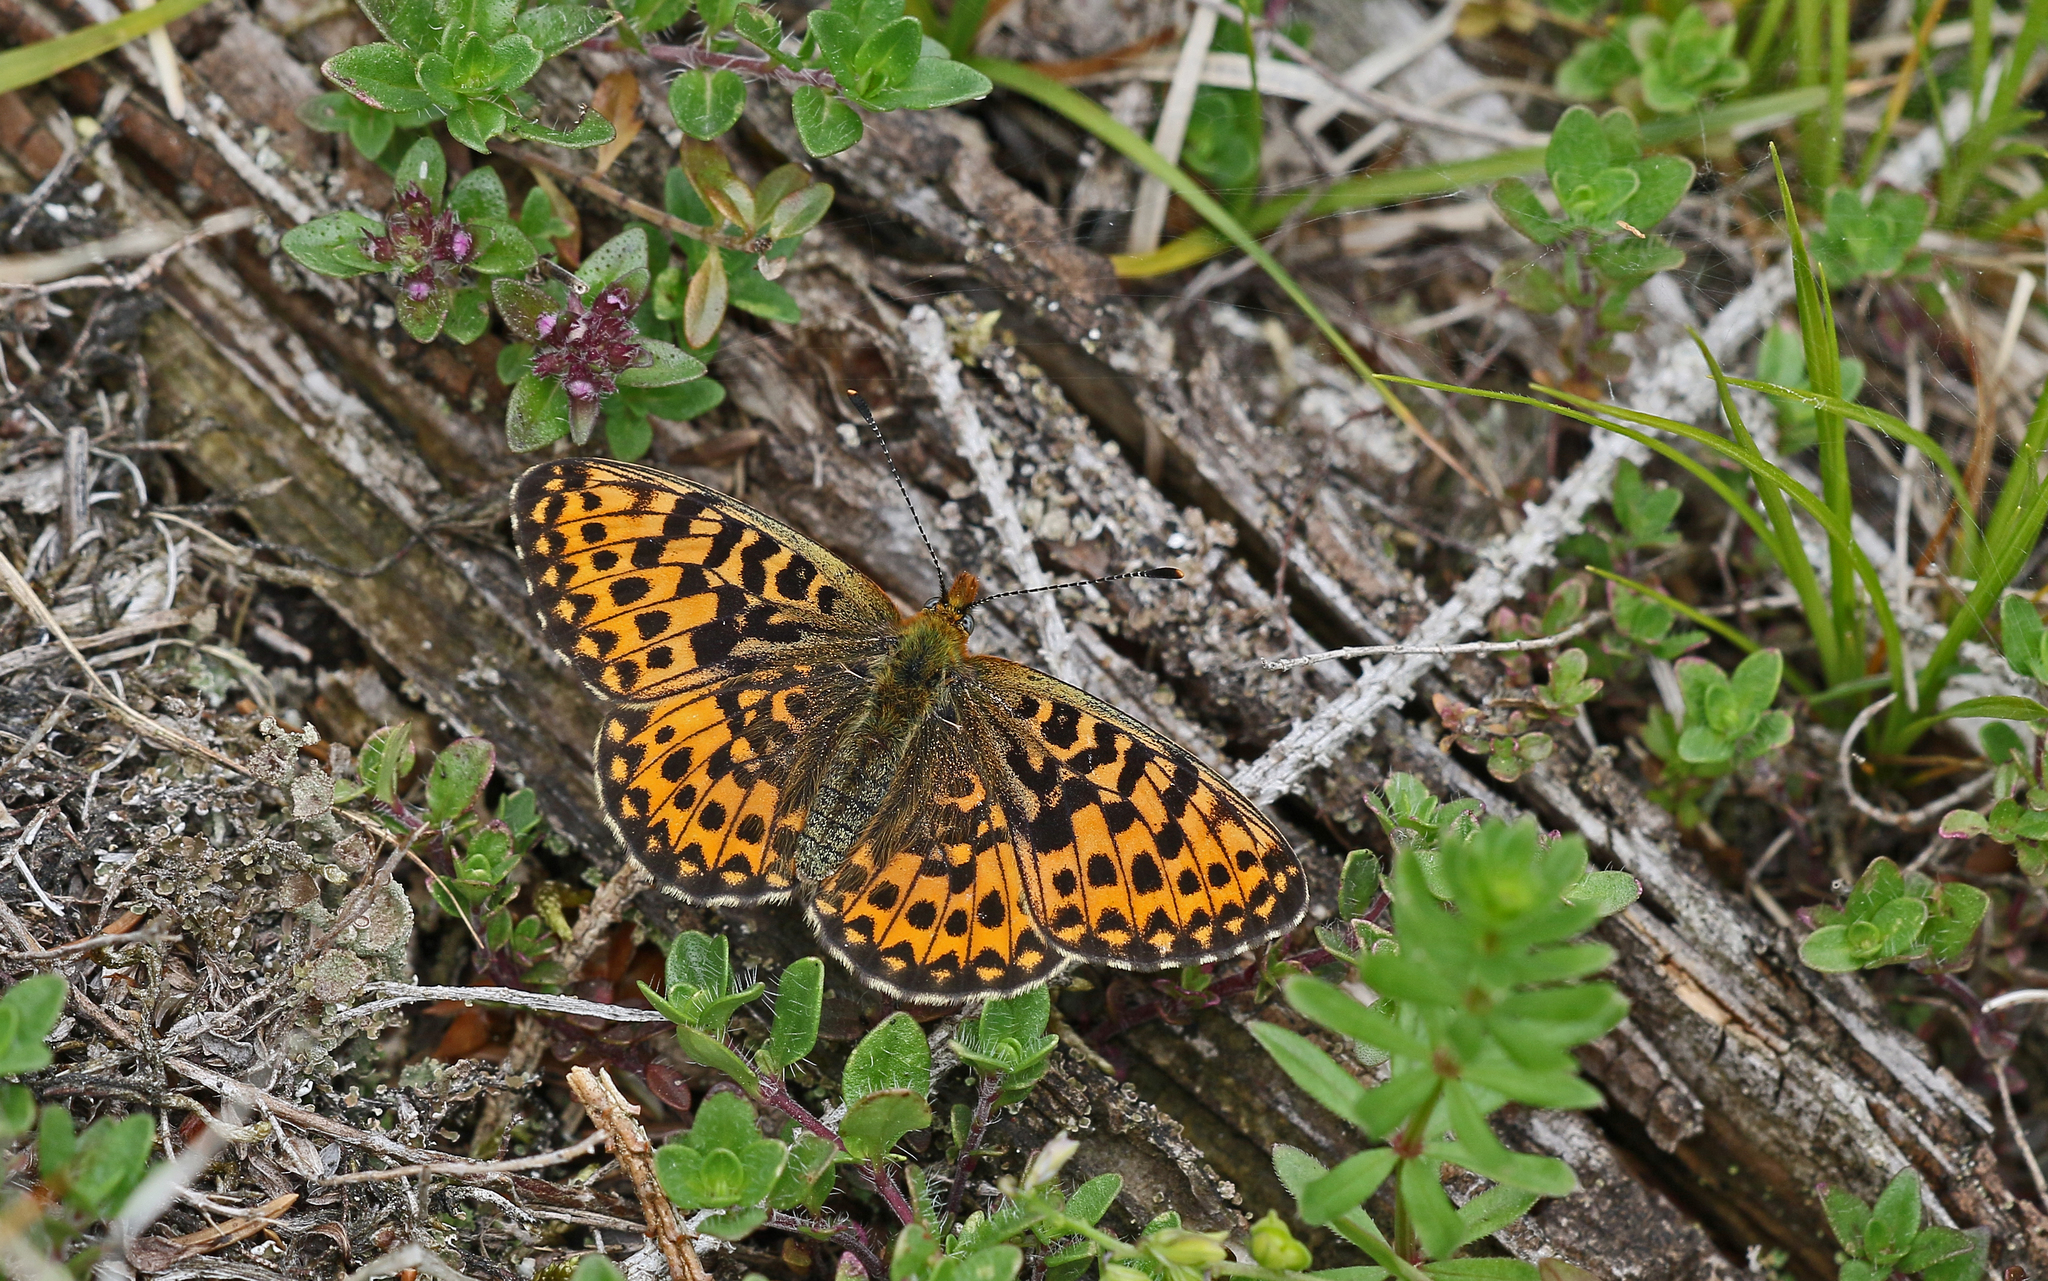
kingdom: Animalia
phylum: Arthropoda
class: Insecta
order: Lepidoptera
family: Nymphalidae
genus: Clossiana
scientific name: Clossiana euphrosyne
